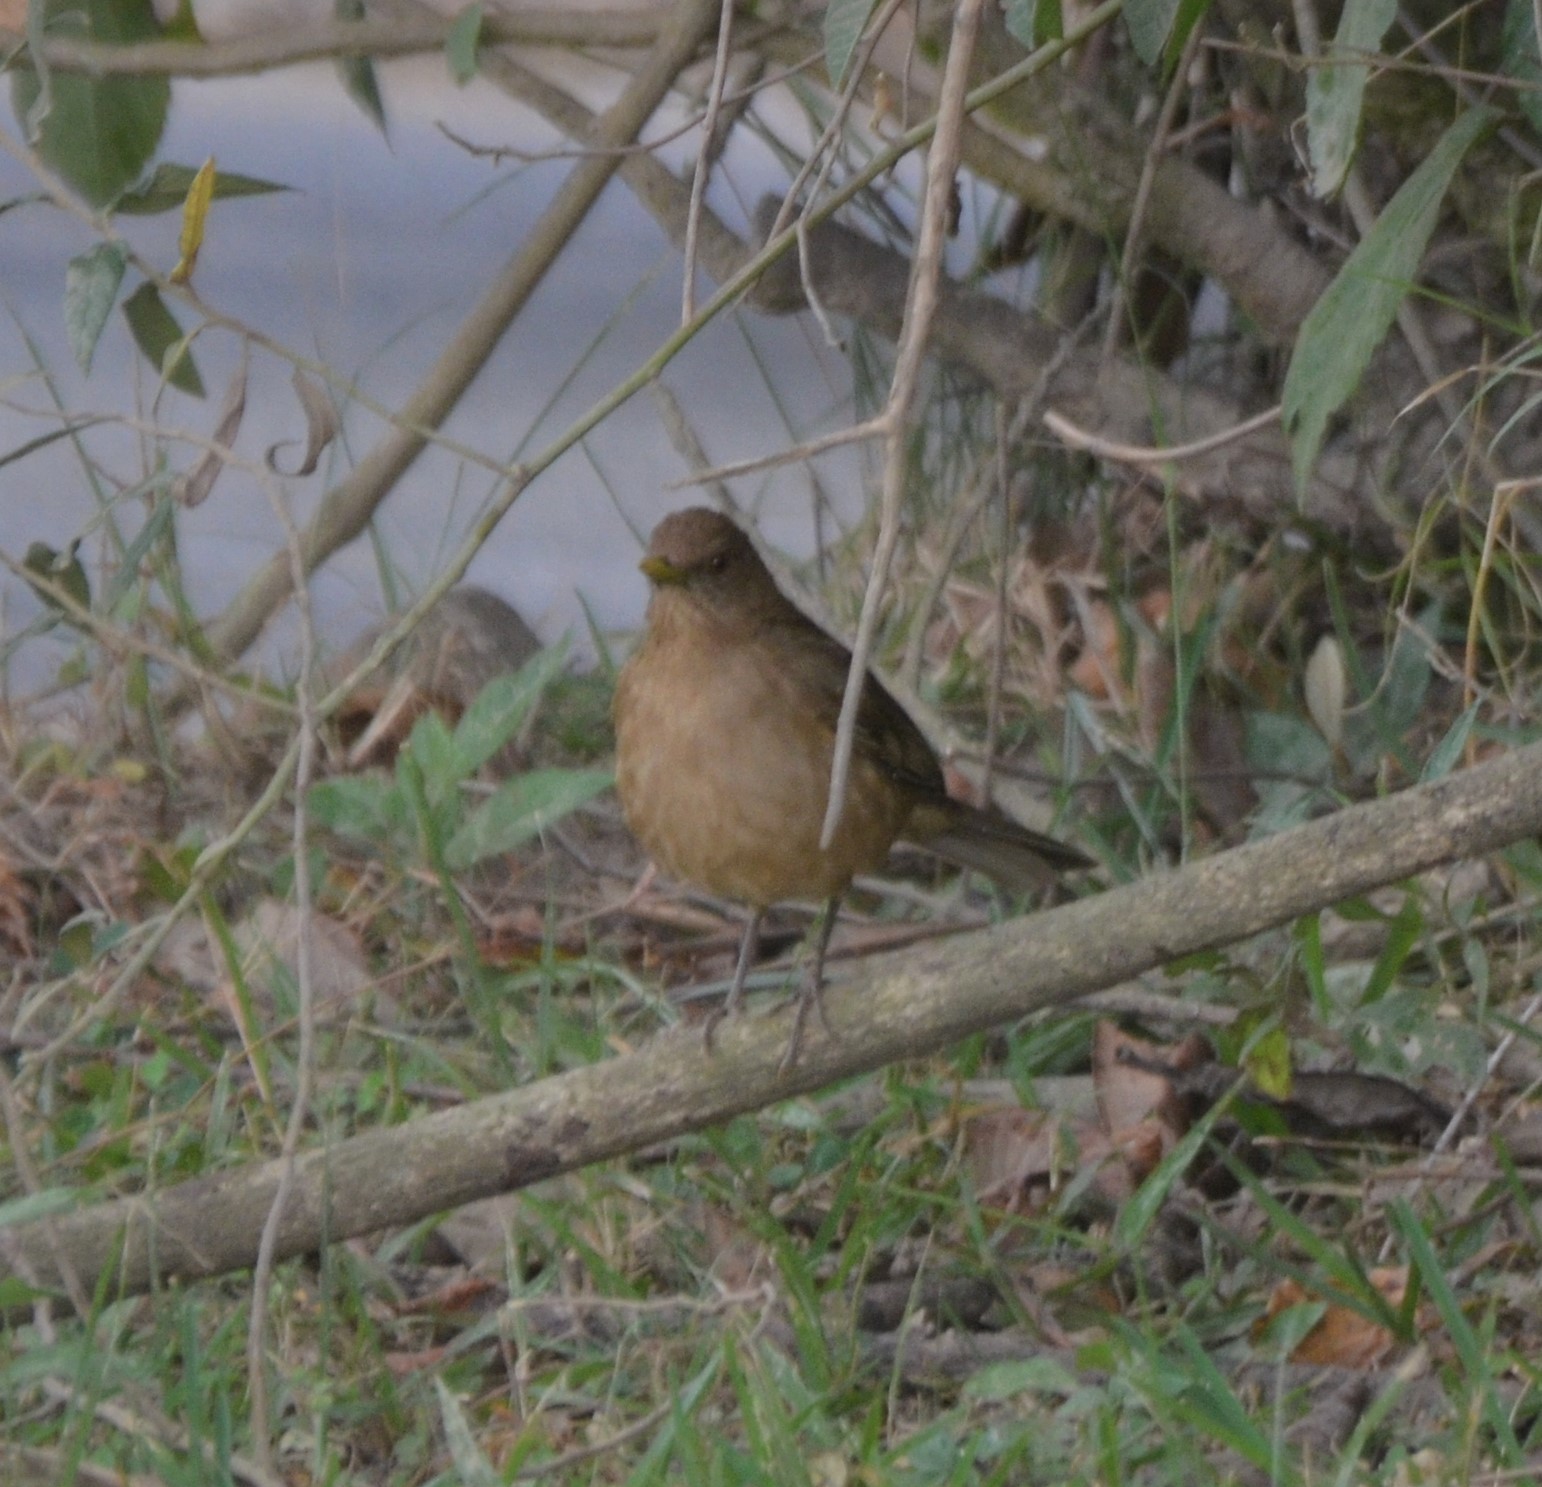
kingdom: Animalia
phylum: Chordata
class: Aves
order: Passeriformes
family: Turdidae
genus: Turdus
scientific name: Turdus grayi
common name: Clay-colored thrush
